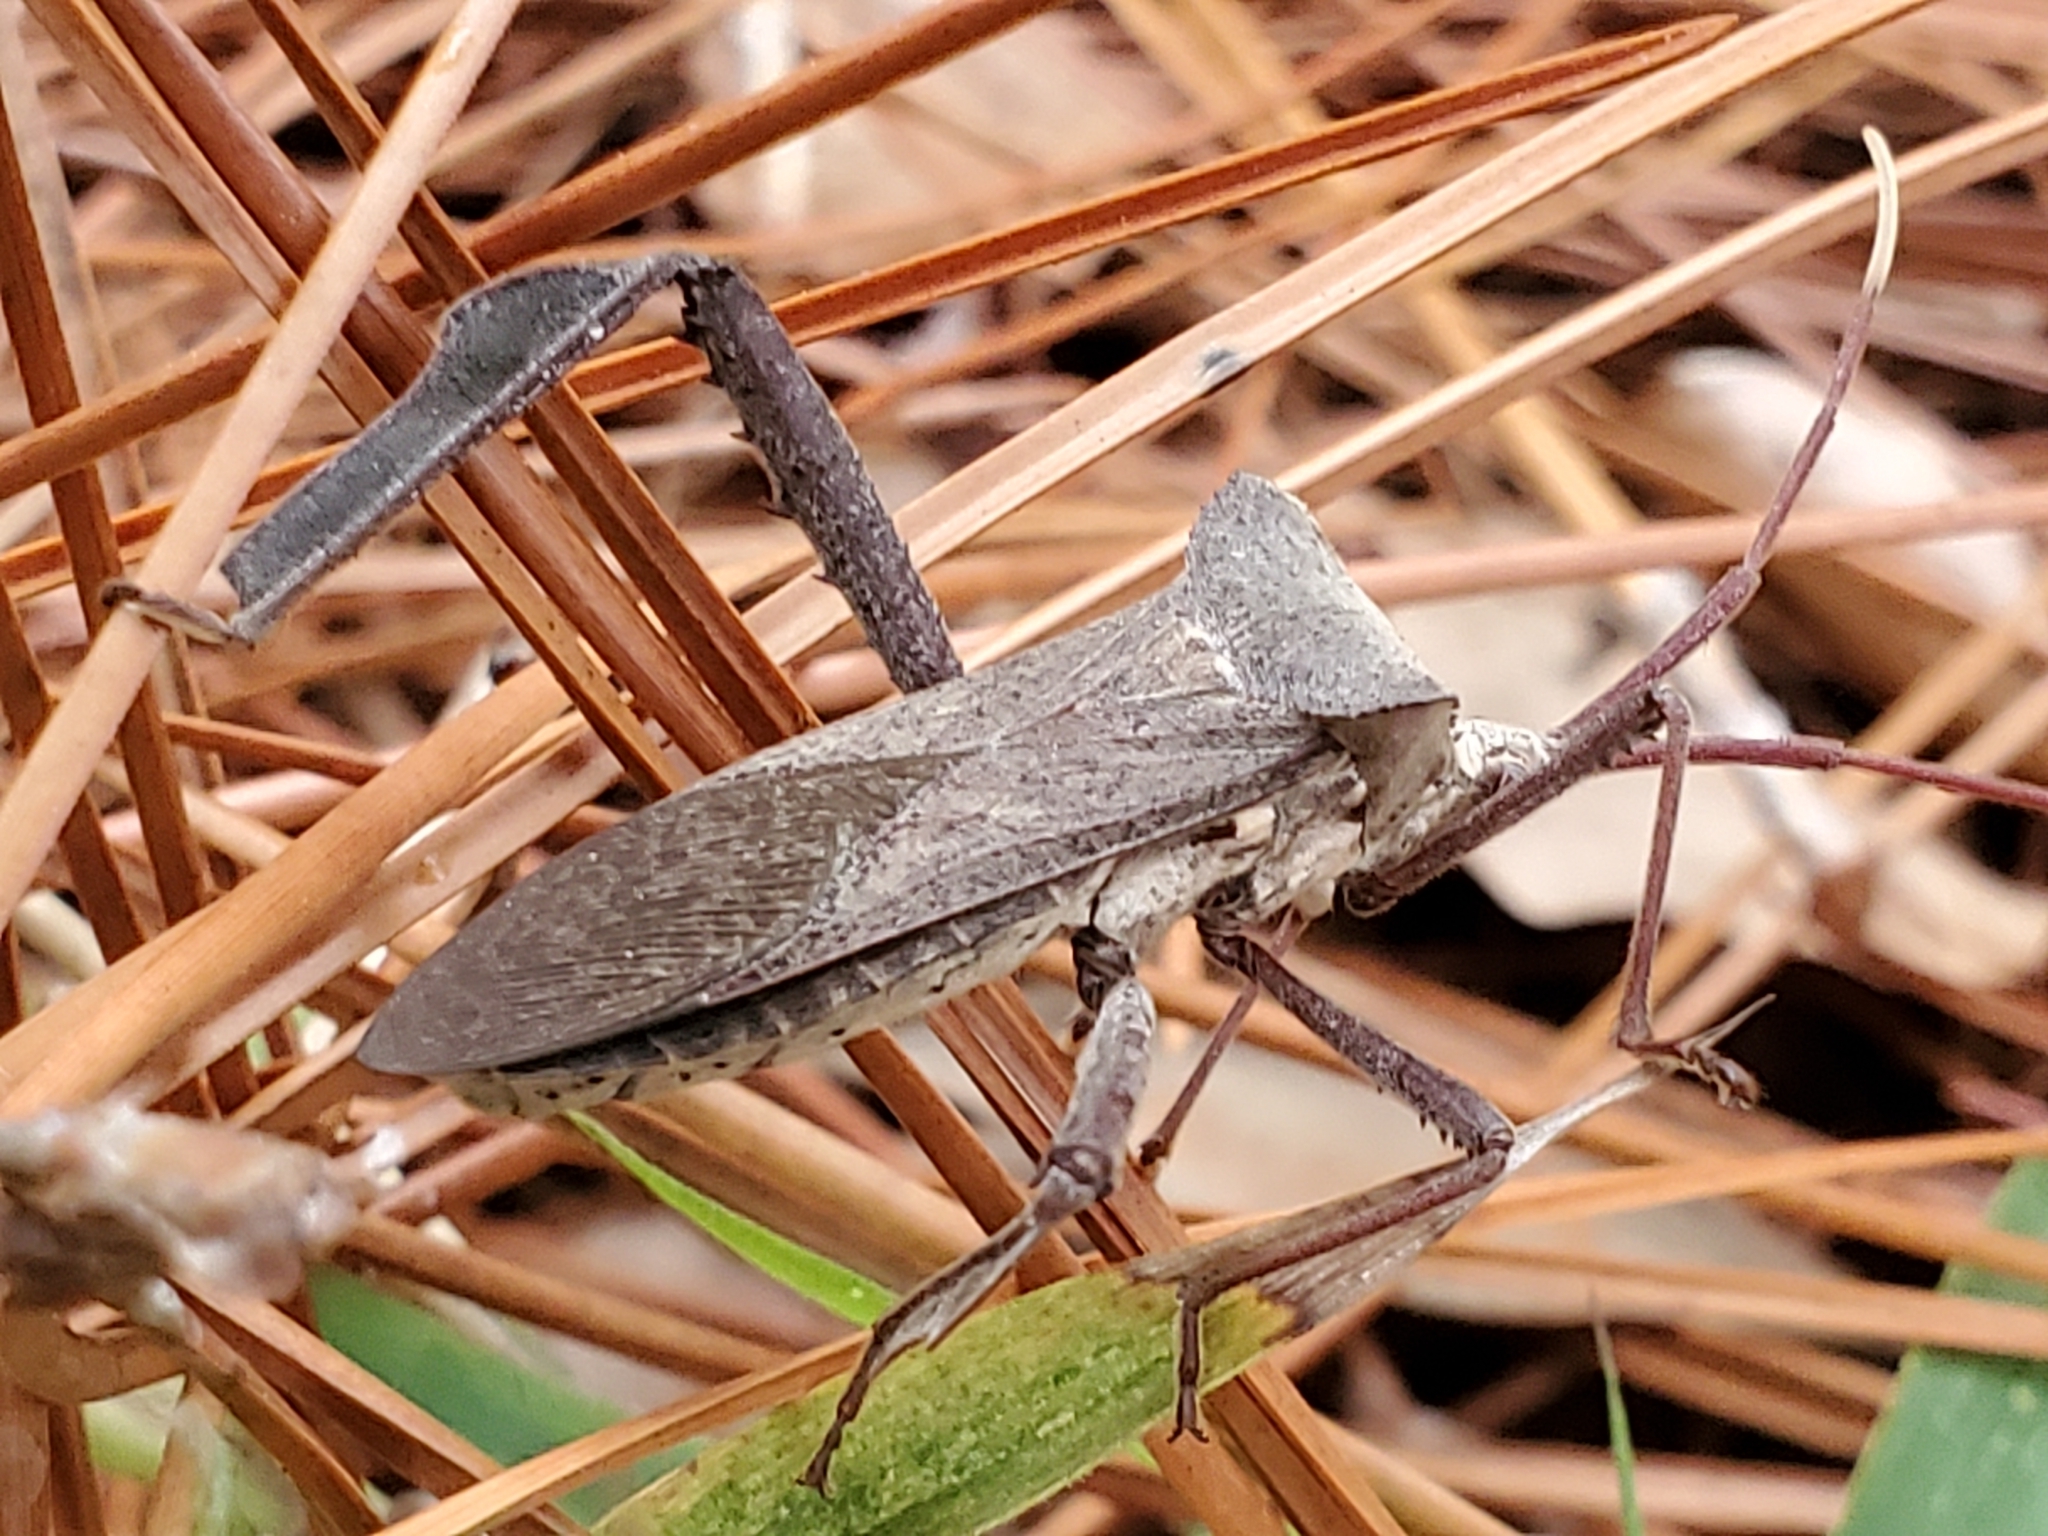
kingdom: Animalia
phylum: Arthropoda
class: Insecta
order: Hemiptera
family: Coreidae
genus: Acanthocephala
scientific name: Acanthocephala declivis
